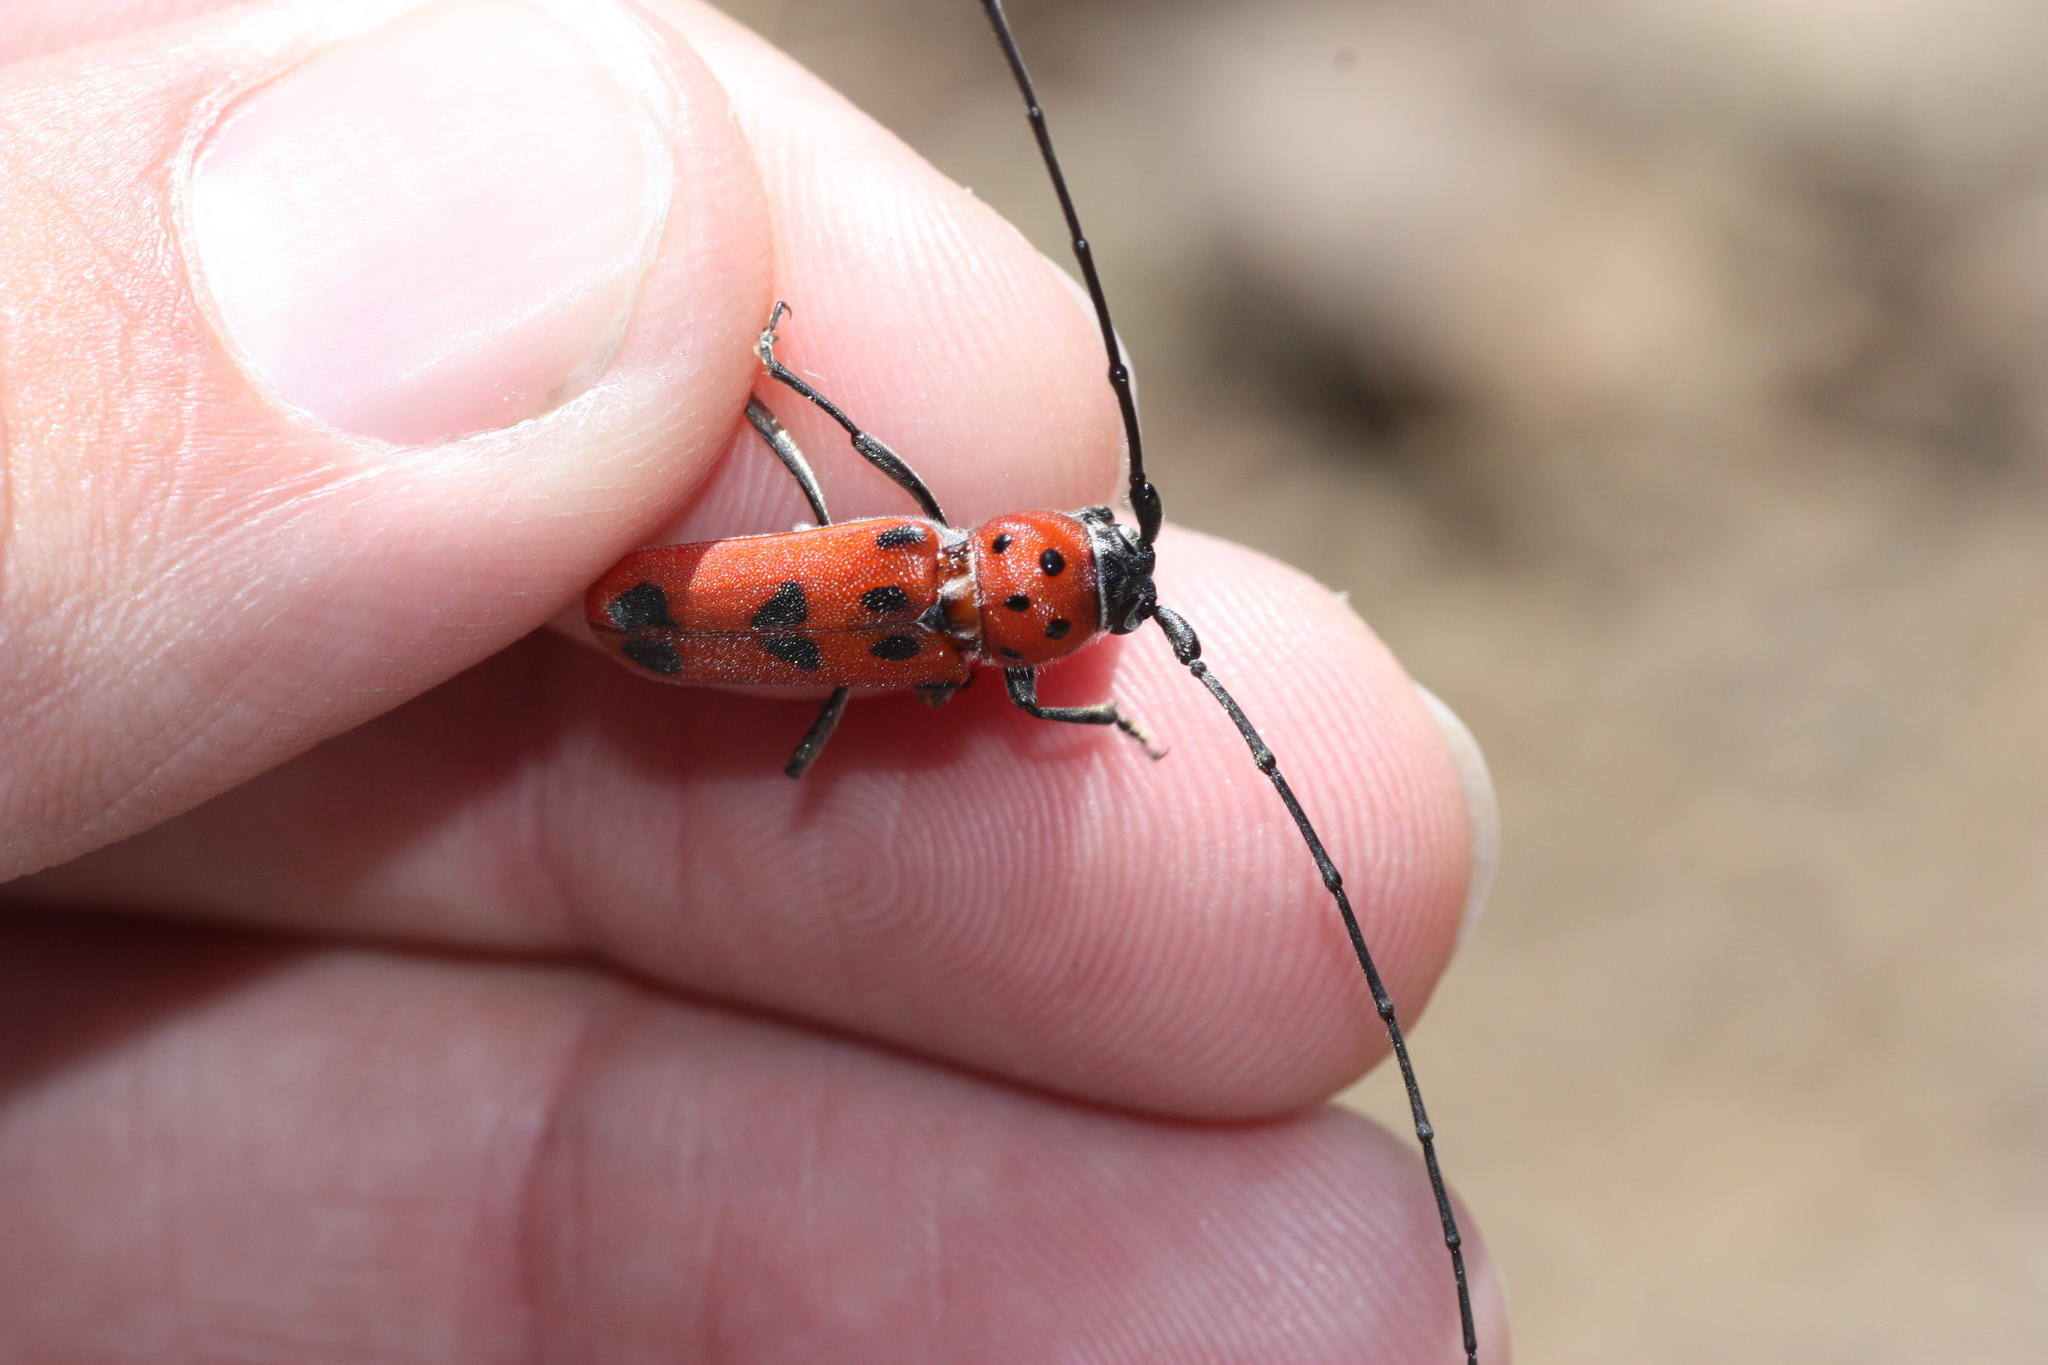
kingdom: Animalia
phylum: Arthropoda
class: Insecta
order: Coleoptera
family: Cerambycidae
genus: Tylosis
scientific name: Tylosis maculatus
